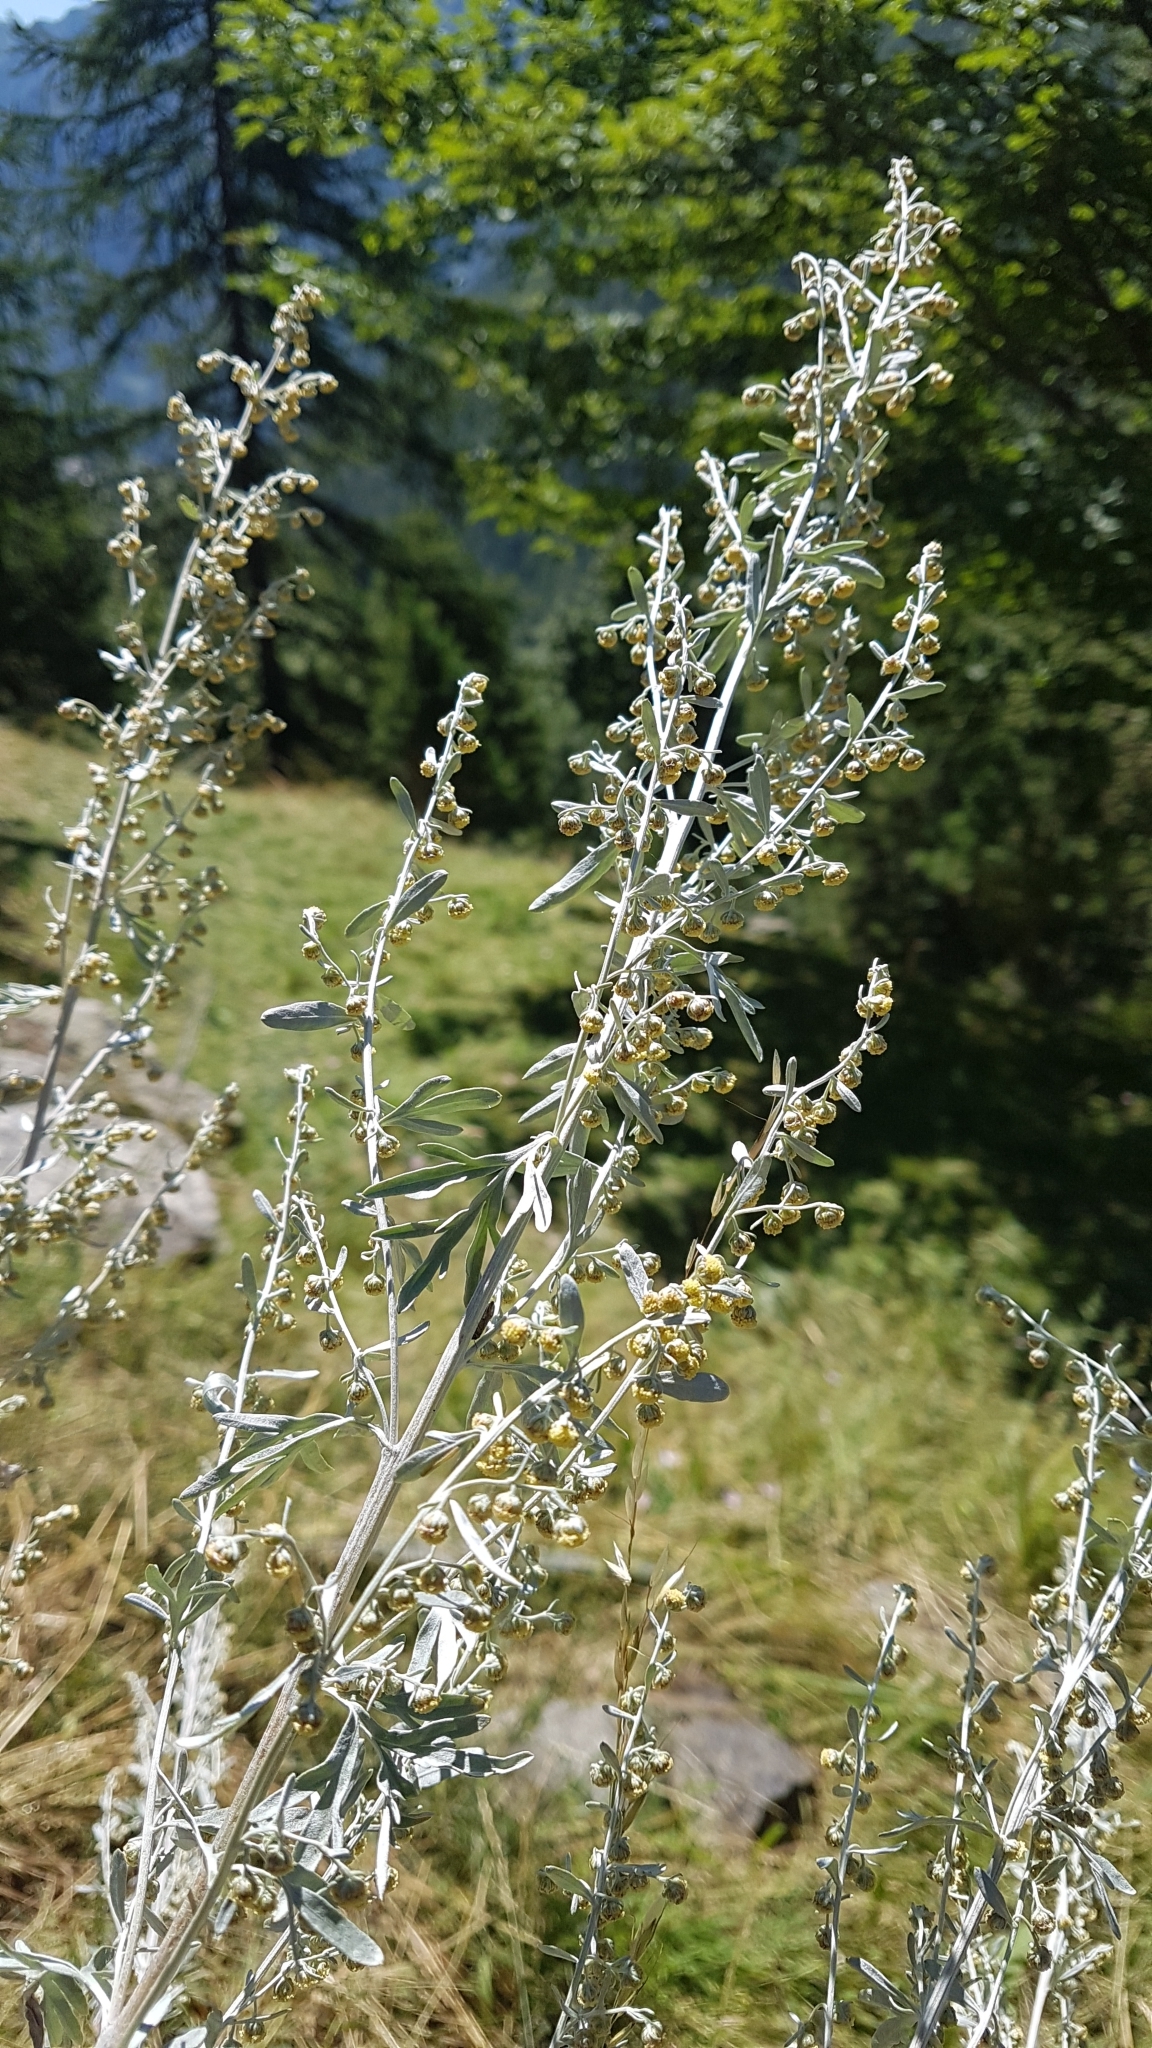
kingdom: Plantae
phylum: Tracheophyta
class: Magnoliopsida
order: Asterales
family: Asteraceae
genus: Artemisia
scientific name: Artemisia absinthium
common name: Wormwood
